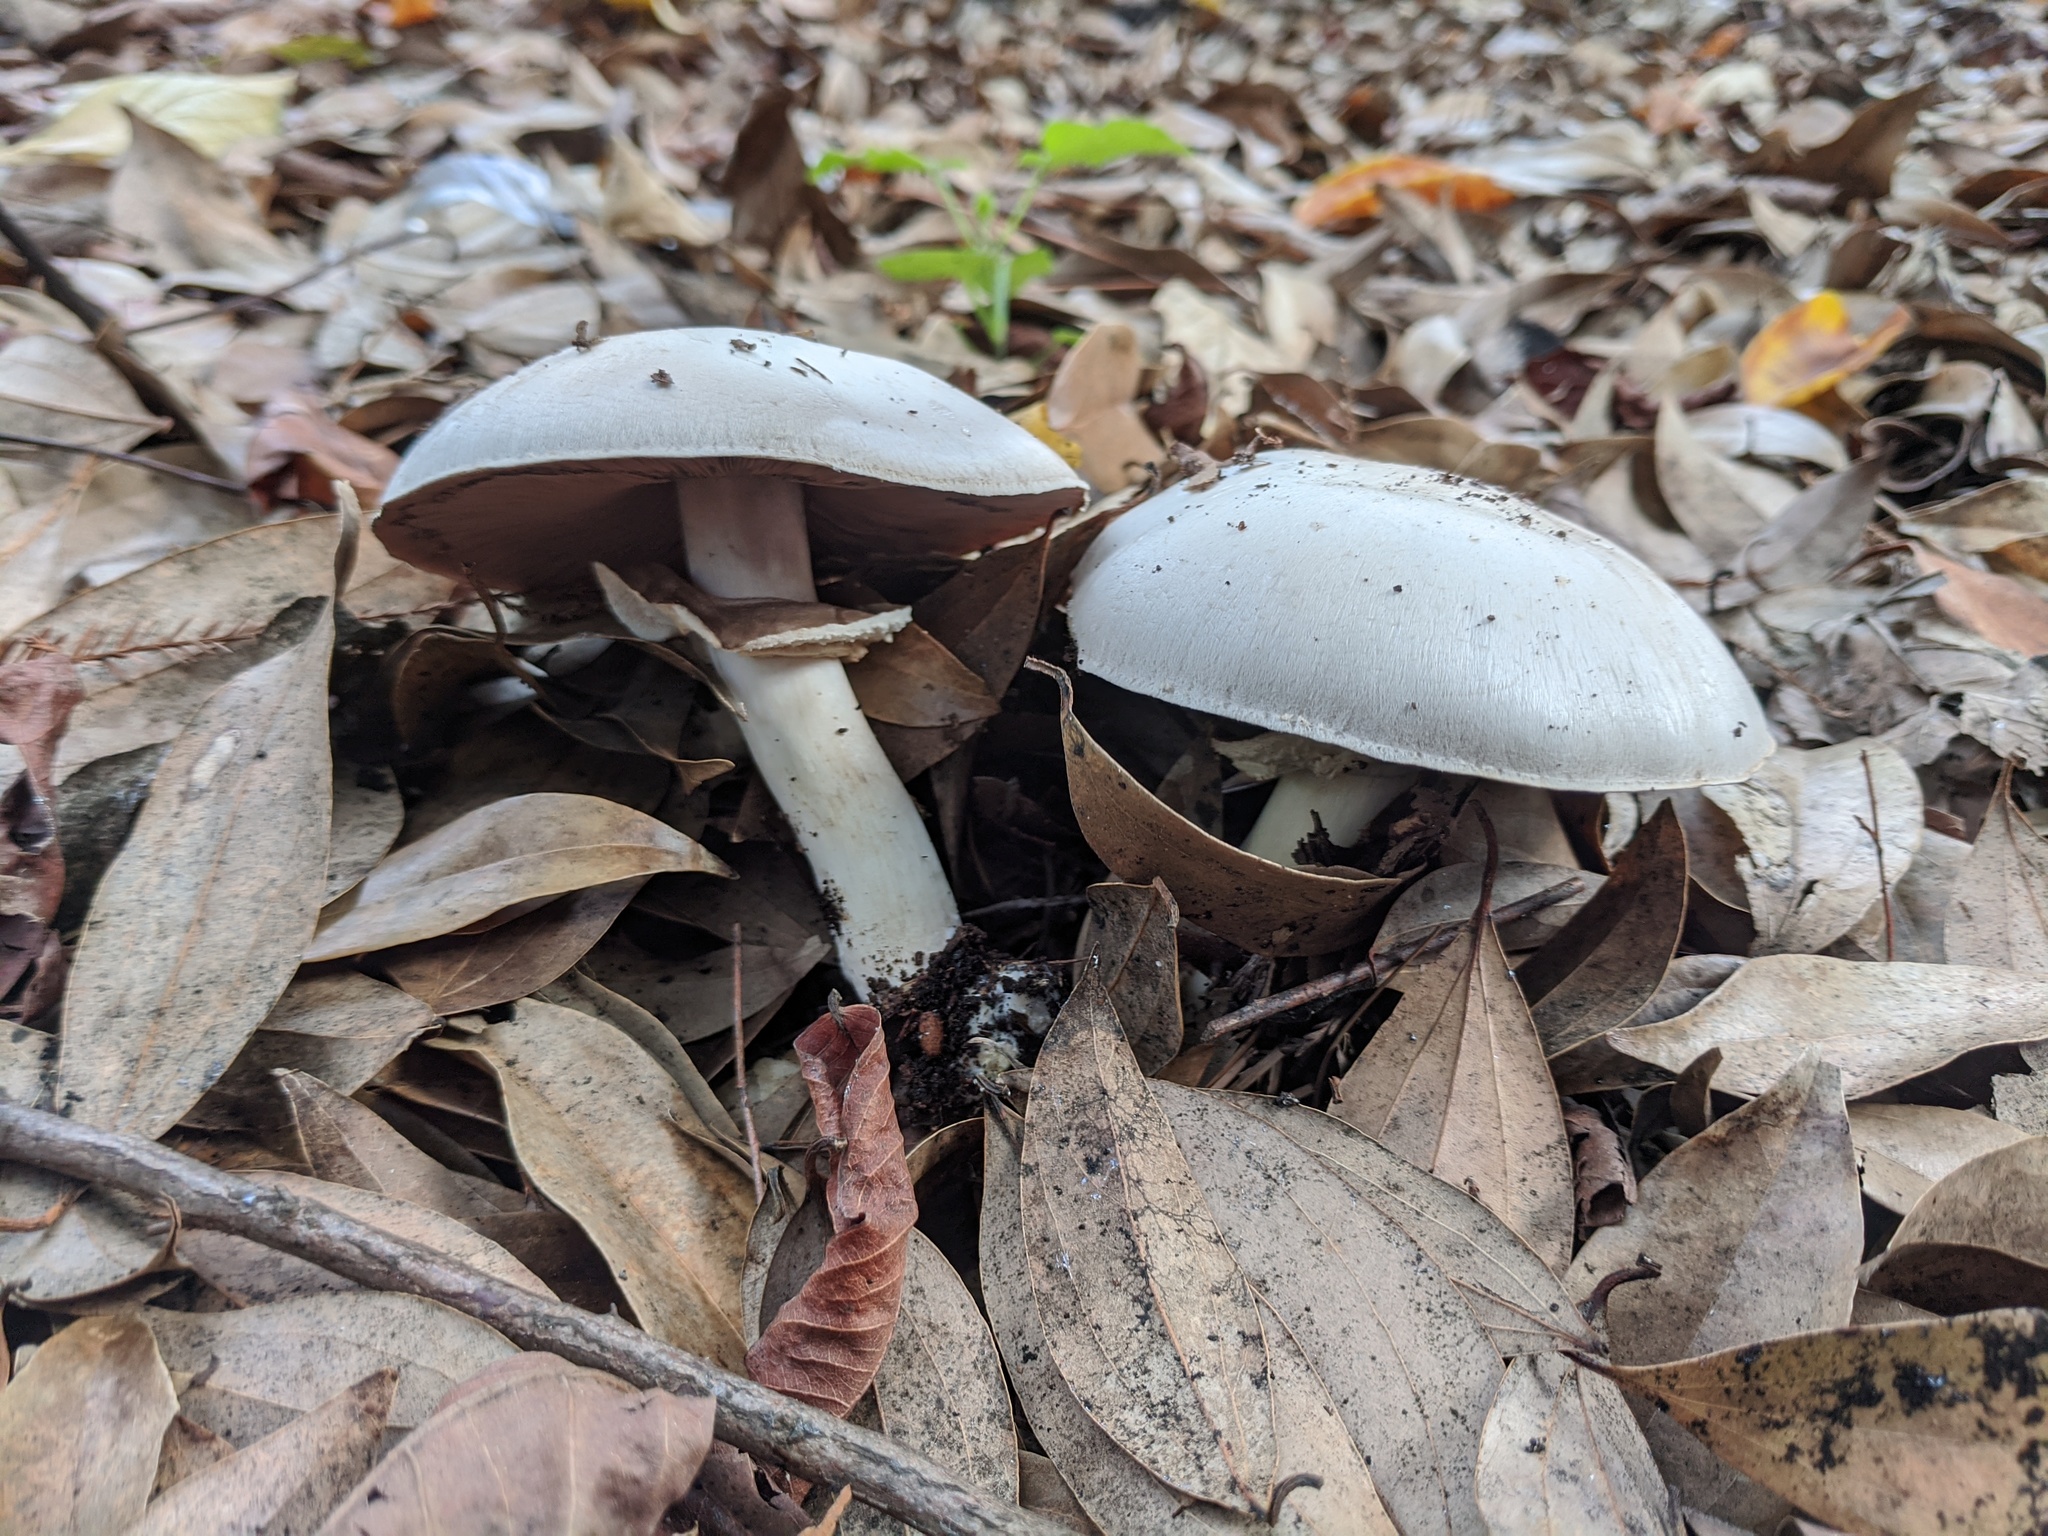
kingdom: Fungi
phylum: Basidiomycota
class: Agaricomycetes
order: Agaricales
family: Agaricaceae
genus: Agaricus
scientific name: Agaricus xanthodermus
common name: Yellow stainer
